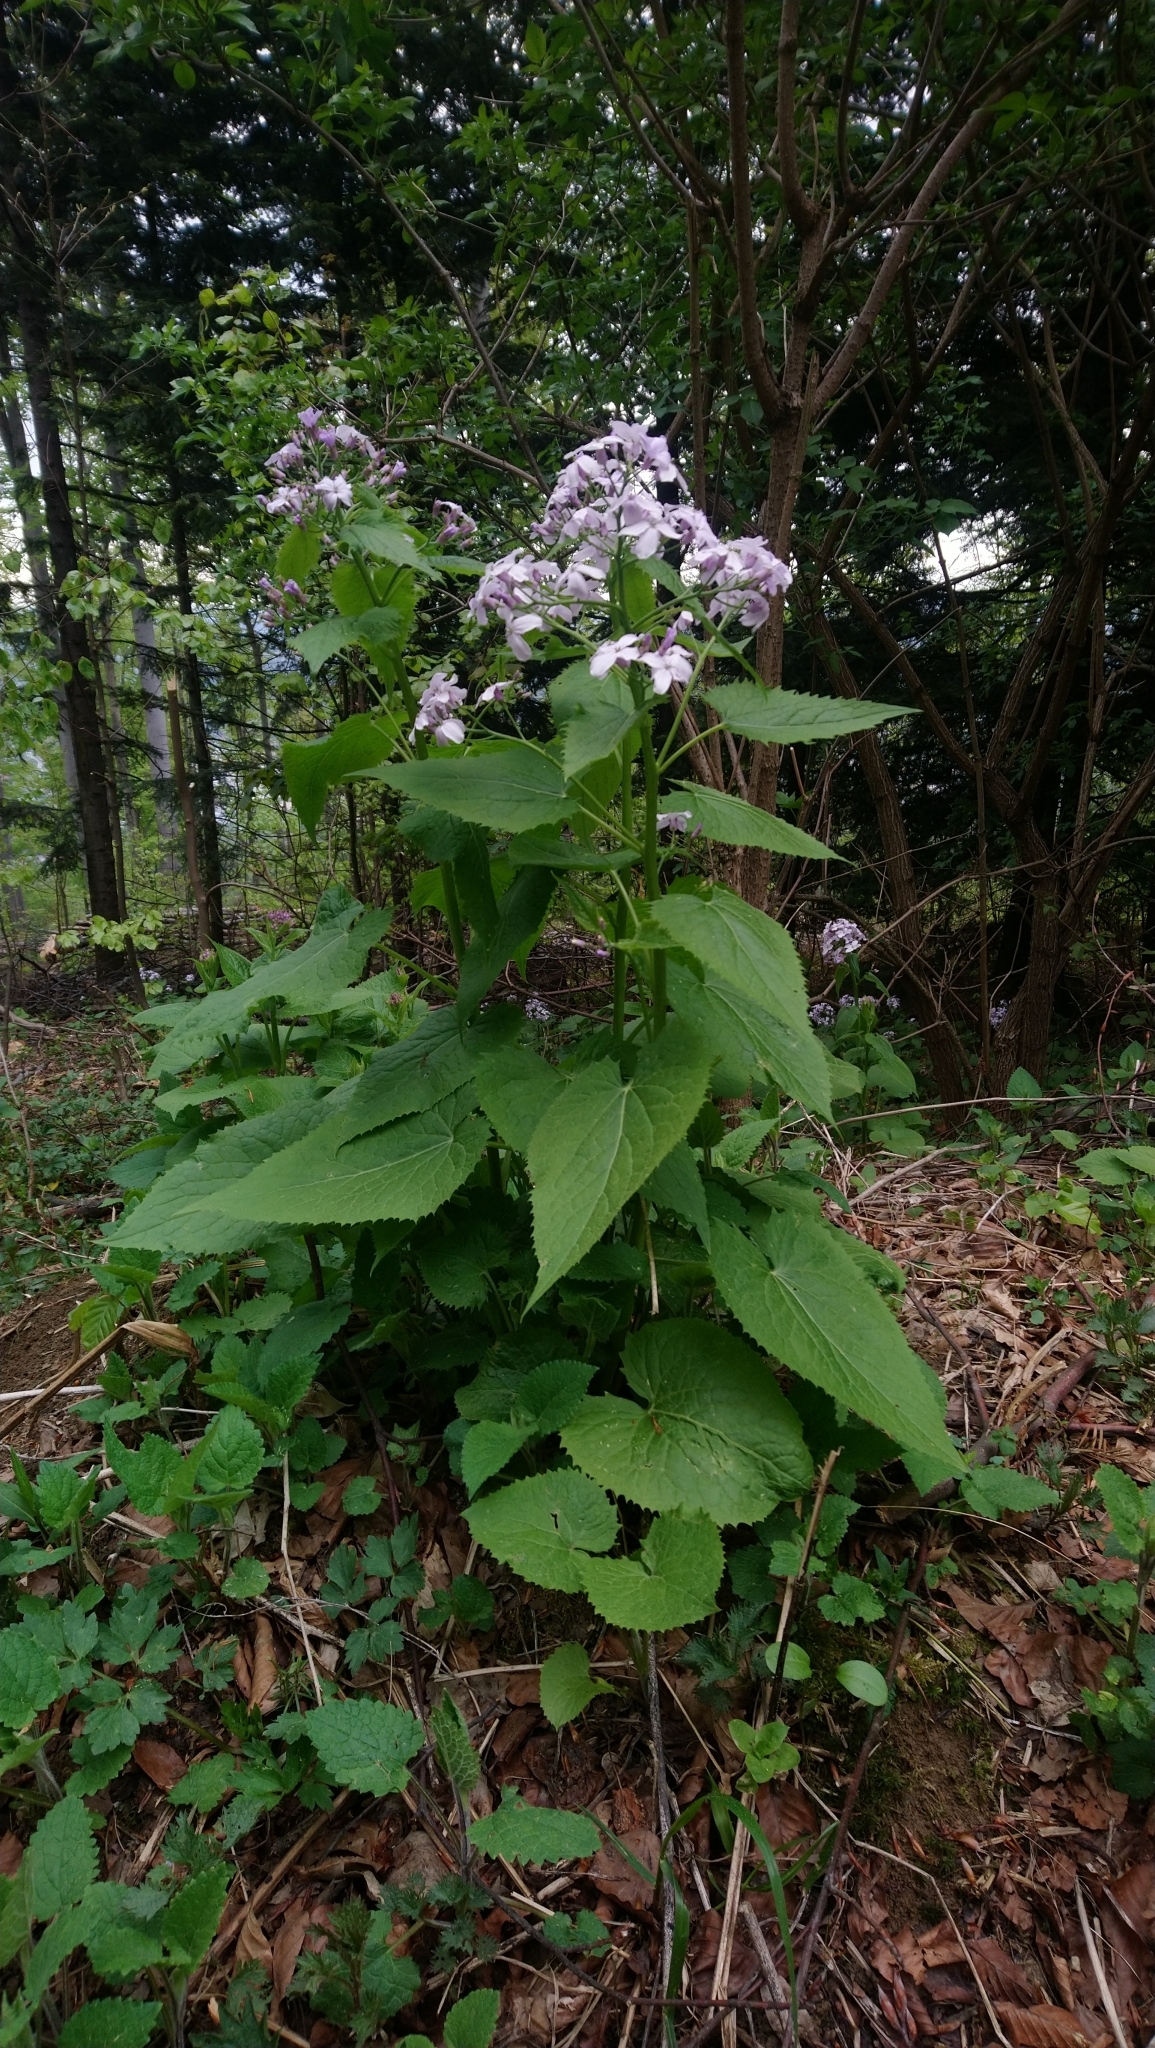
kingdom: Plantae
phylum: Tracheophyta
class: Magnoliopsida
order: Brassicales
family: Brassicaceae
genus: Lunaria
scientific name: Lunaria rediviva
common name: Perennial honesty
